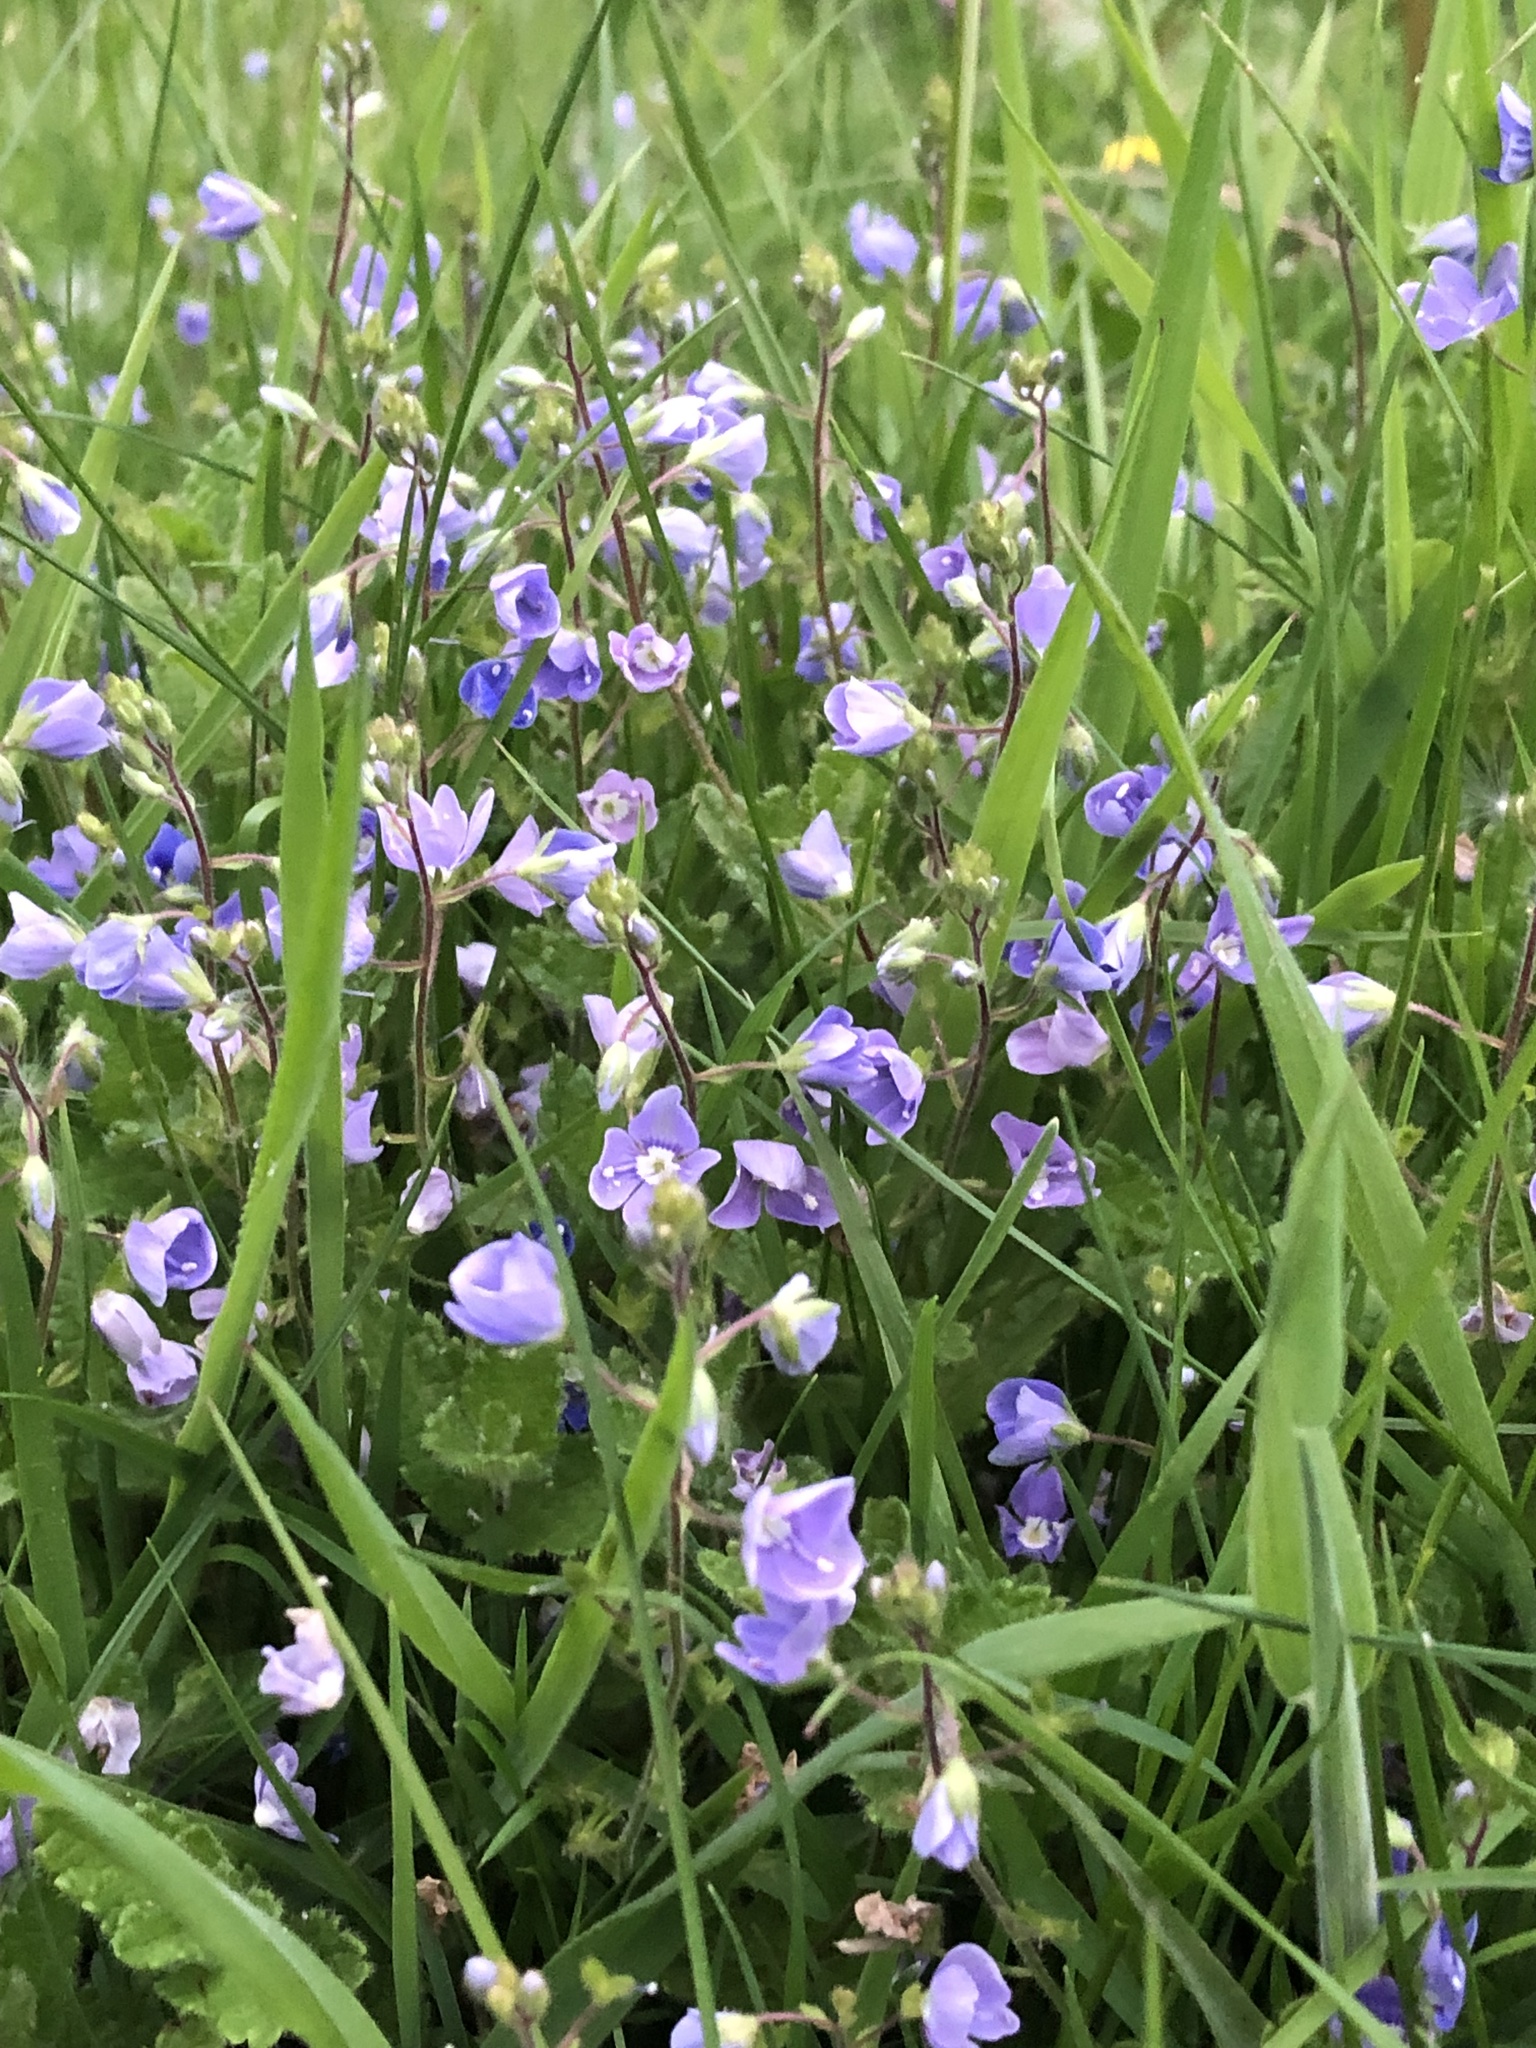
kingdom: Plantae
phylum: Tracheophyta
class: Magnoliopsida
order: Lamiales
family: Plantaginaceae
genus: Veronica
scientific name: Veronica chamaedrys
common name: Germander speedwell
